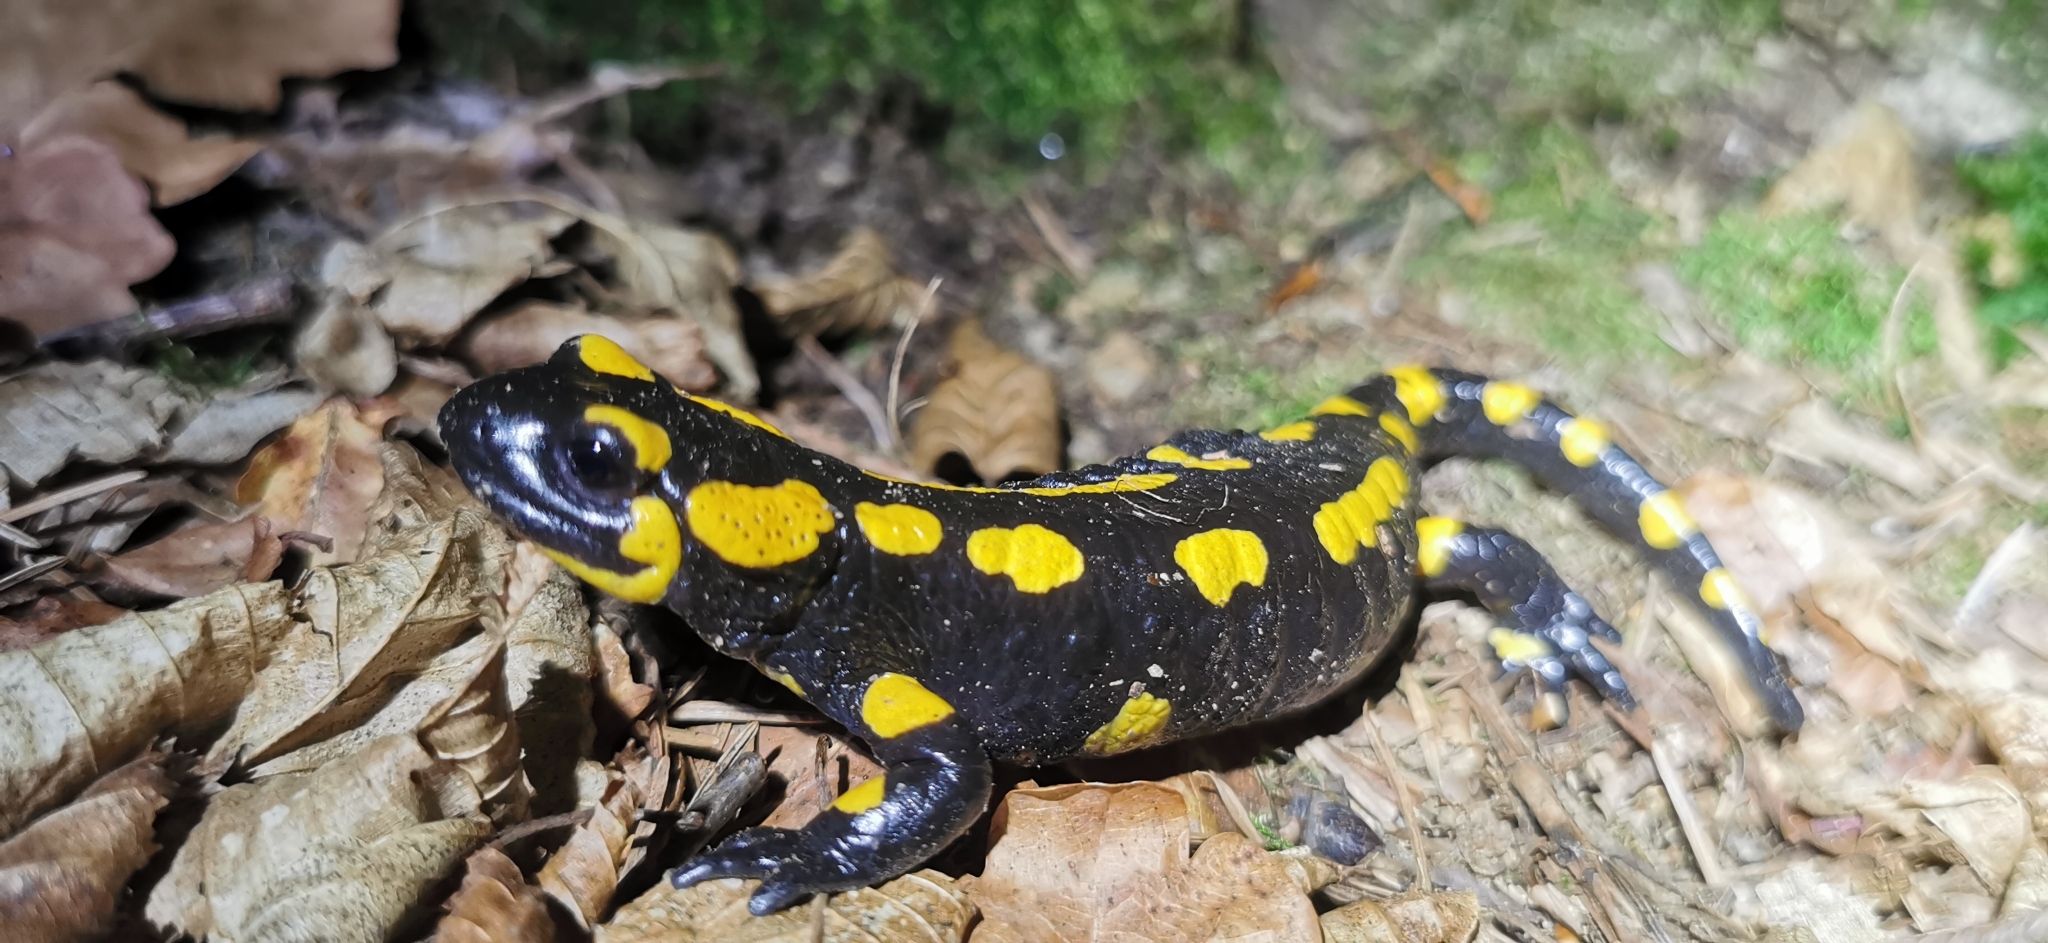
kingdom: Animalia
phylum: Chordata
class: Amphibia
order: Caudata
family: Salamandridae
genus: Salamandra
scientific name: Salamandra salamandra
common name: Fire salamander
